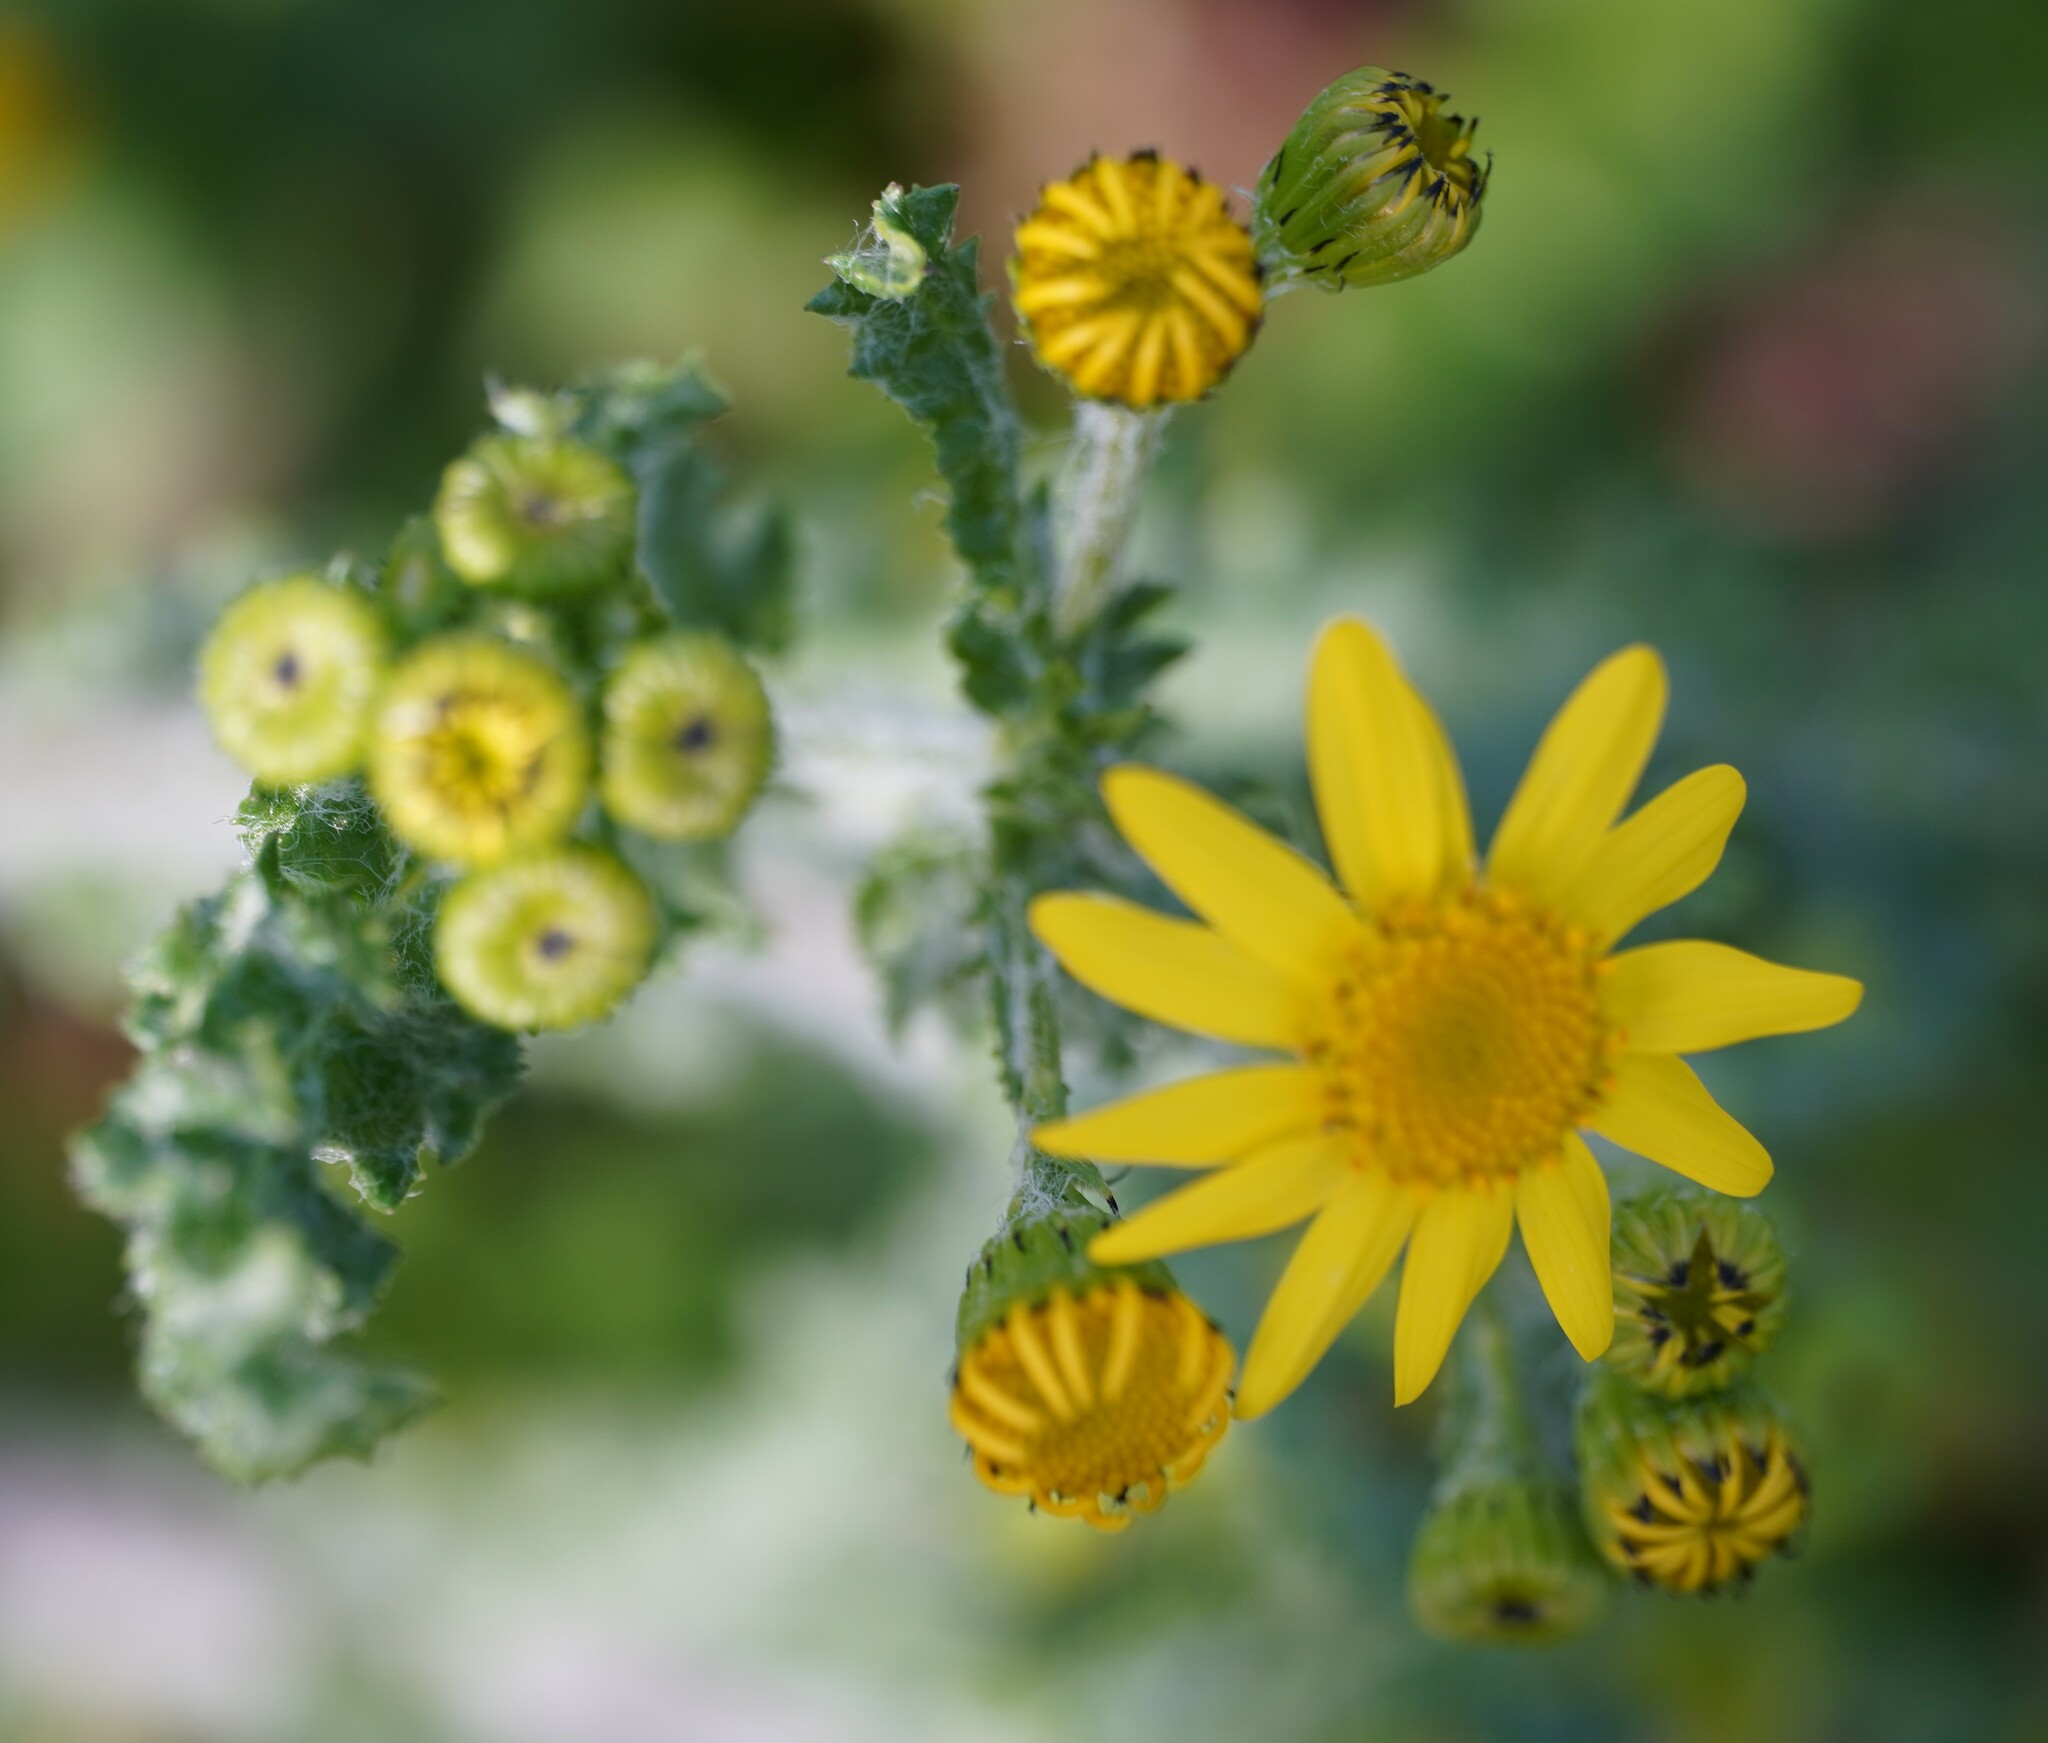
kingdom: Plantae
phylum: Tracheophyta
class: Magnoliopsida
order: Asterales
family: Asteraceae
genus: Senecio
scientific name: Senecio vernalis
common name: Eastern groundsel
